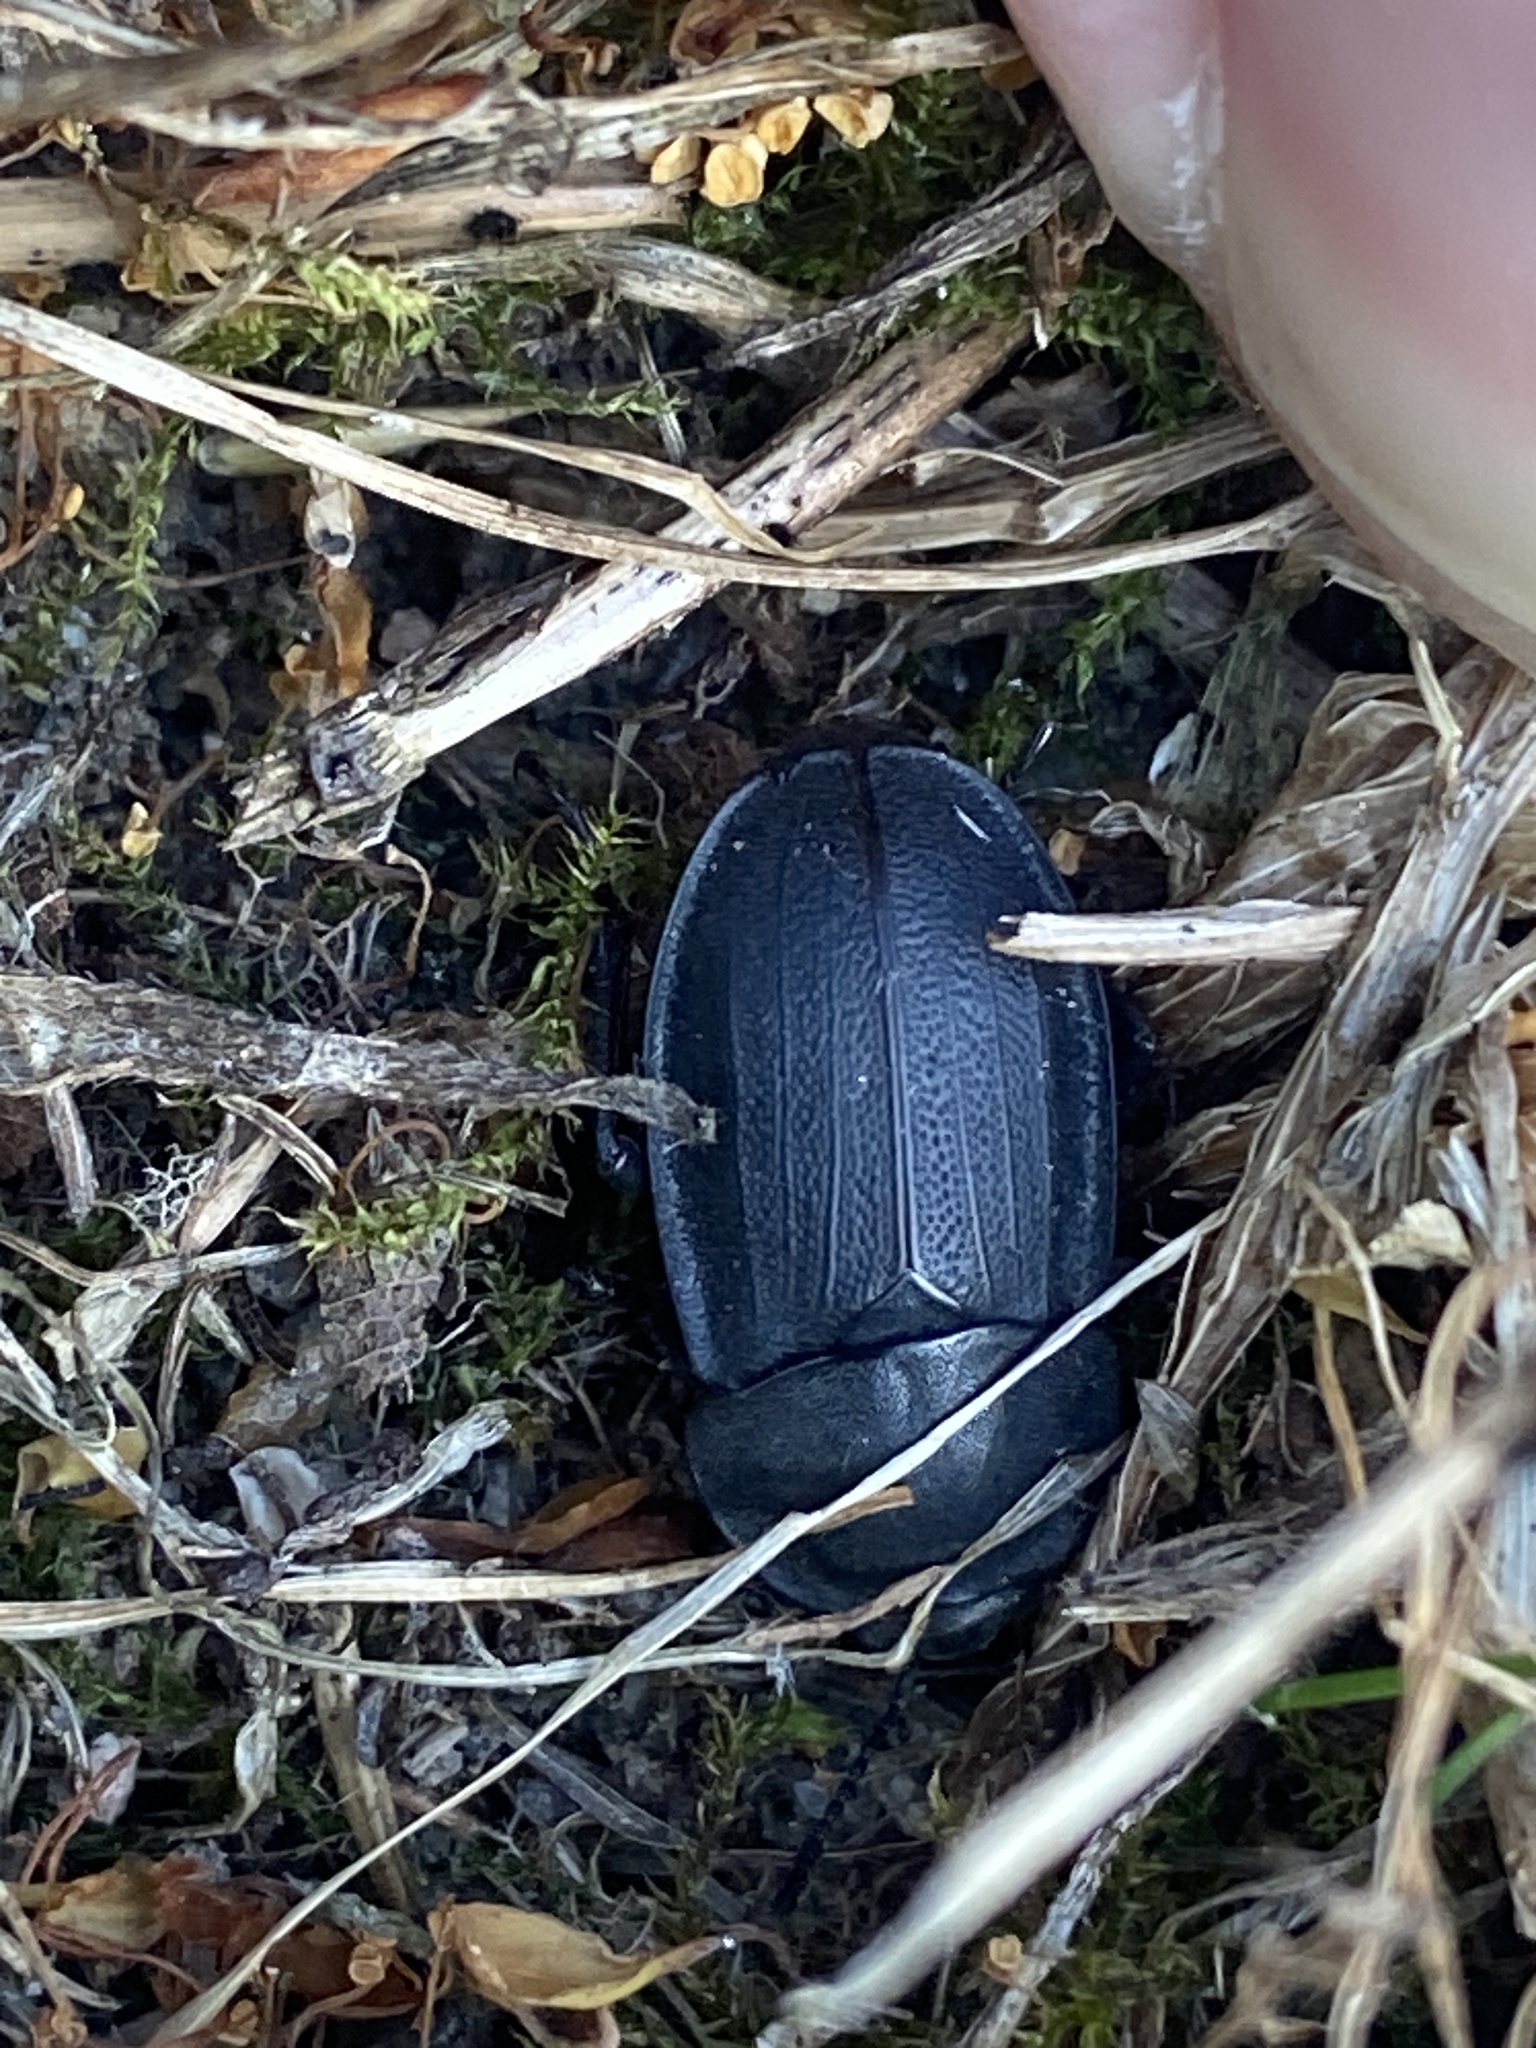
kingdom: Animalia
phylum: Arthropoda
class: Insecta
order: Coleoptera
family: Staphylinidae
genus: Silpha
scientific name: Silpha obscura
